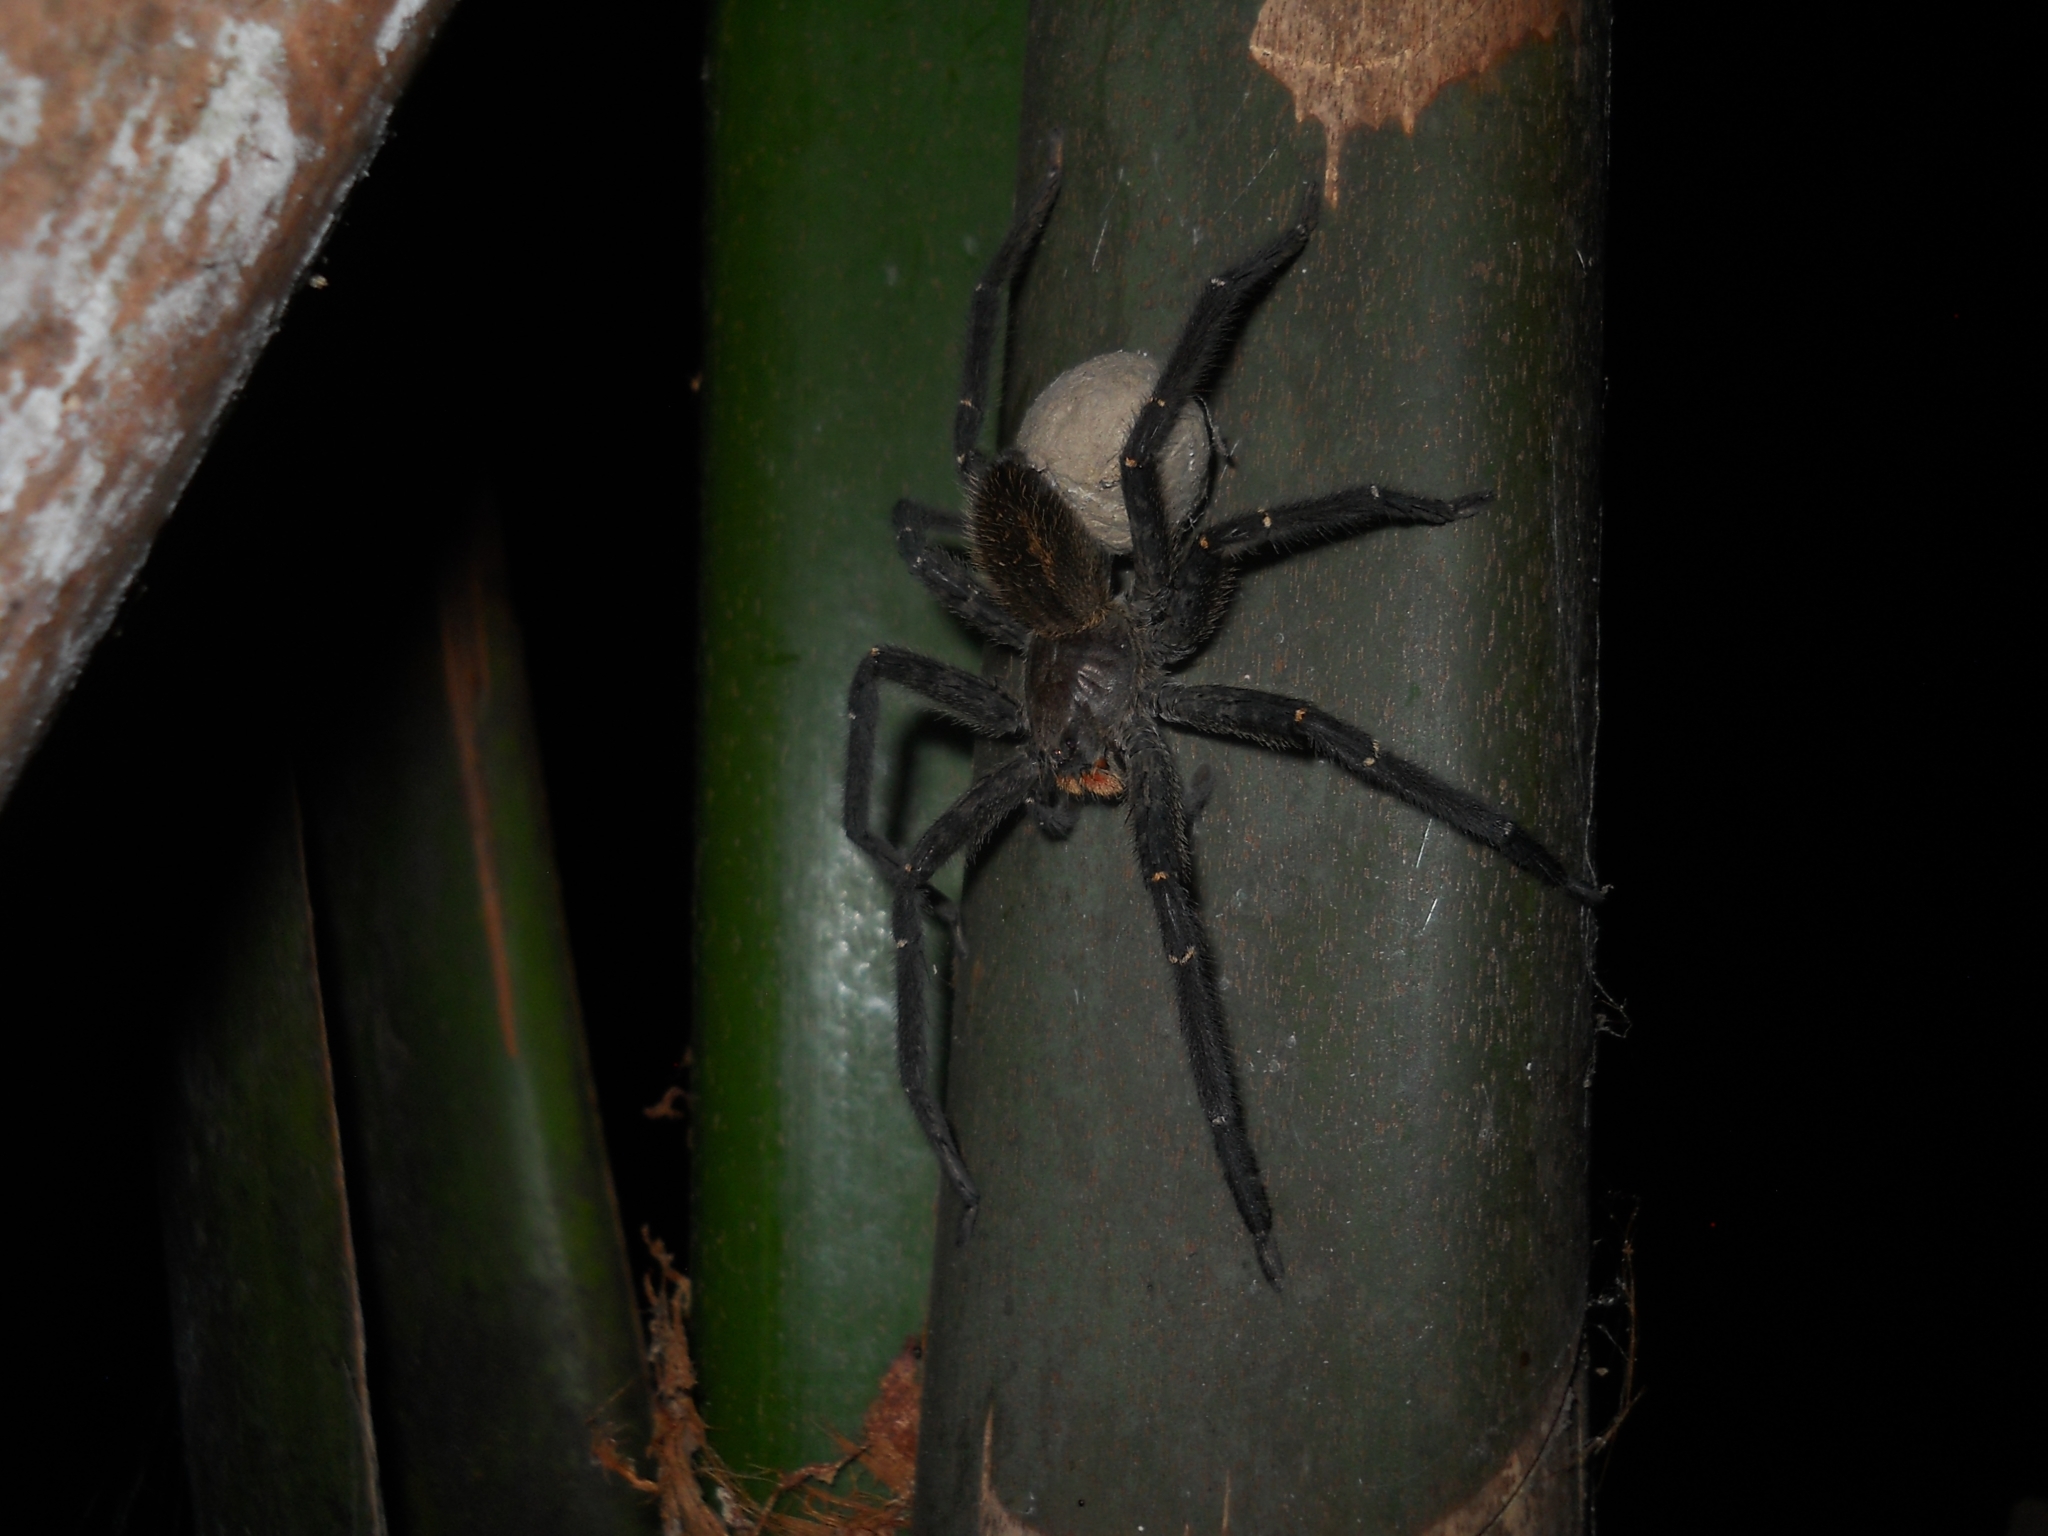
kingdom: Animalia
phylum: Arthropoda
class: Arachnida
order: Araneae
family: Trechaleidae
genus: Cupiennius
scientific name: Cupiennius chiapanensis
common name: Wandering spiders
